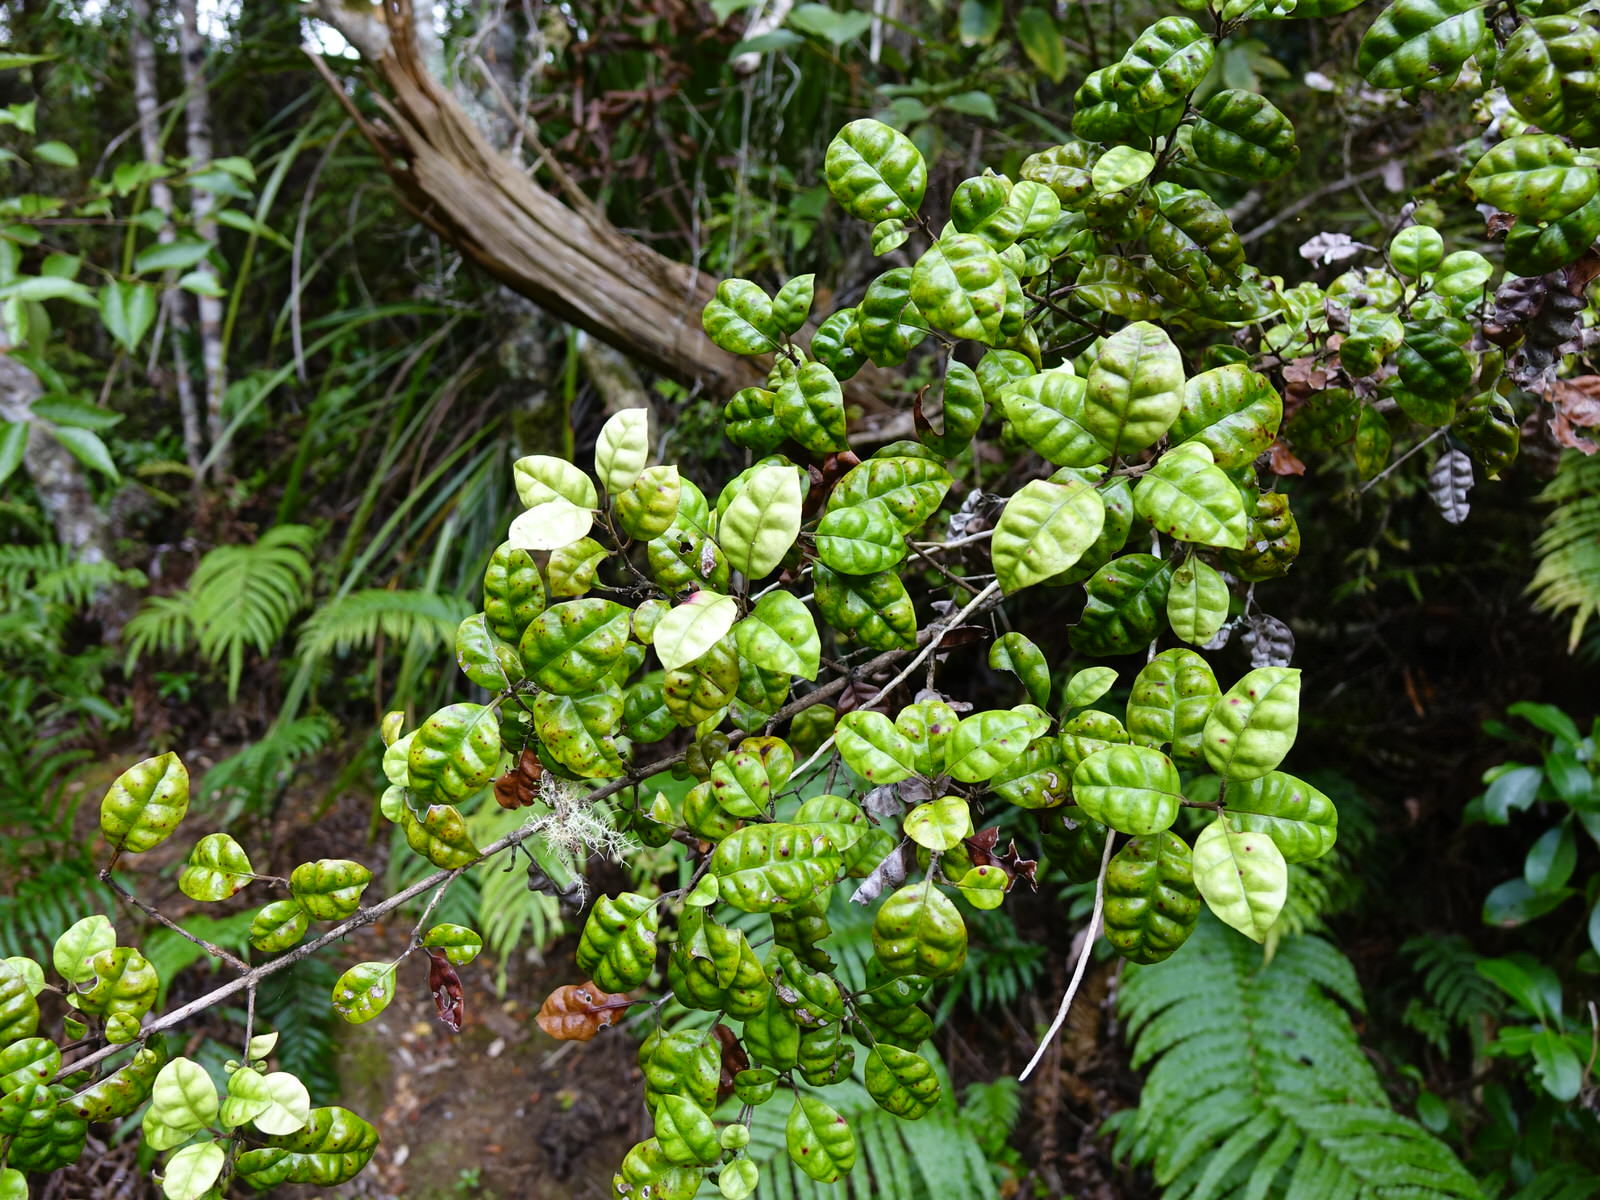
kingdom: Plantae
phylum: Tracheophyta
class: Magnoliopsida
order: Myrtales
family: Myrtaceae
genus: Lophomyrtus
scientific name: Lophomyrtus bullata
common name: Rama rama
